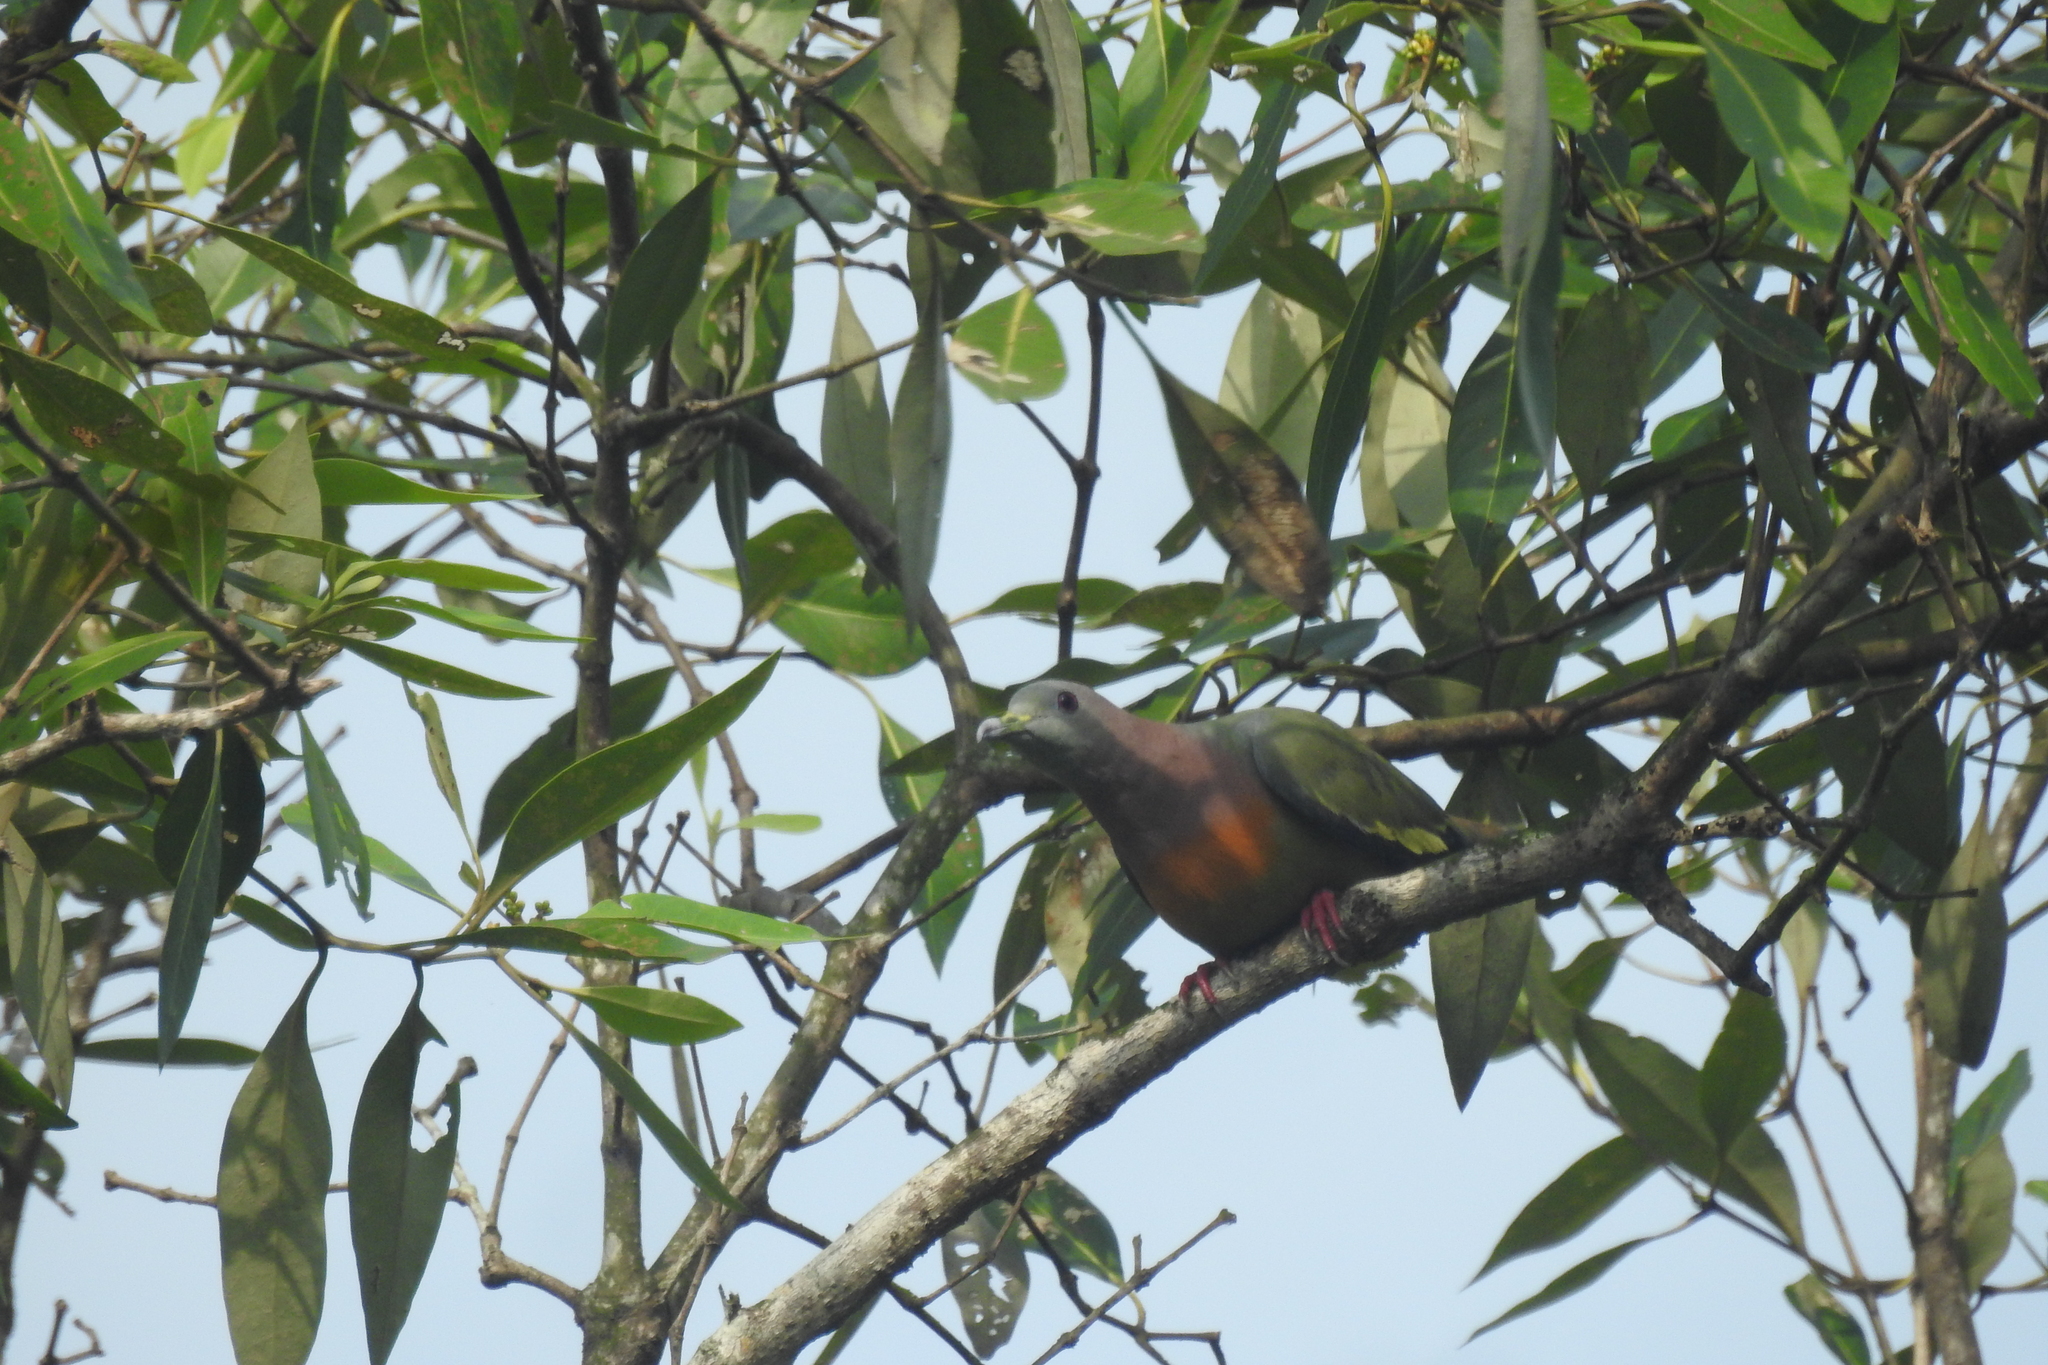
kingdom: Animalia
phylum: Chordata
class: Aves
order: Columbiformes
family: Columbidae
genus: Treron
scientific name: Treron vernans
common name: Pink-necked green pigeon
